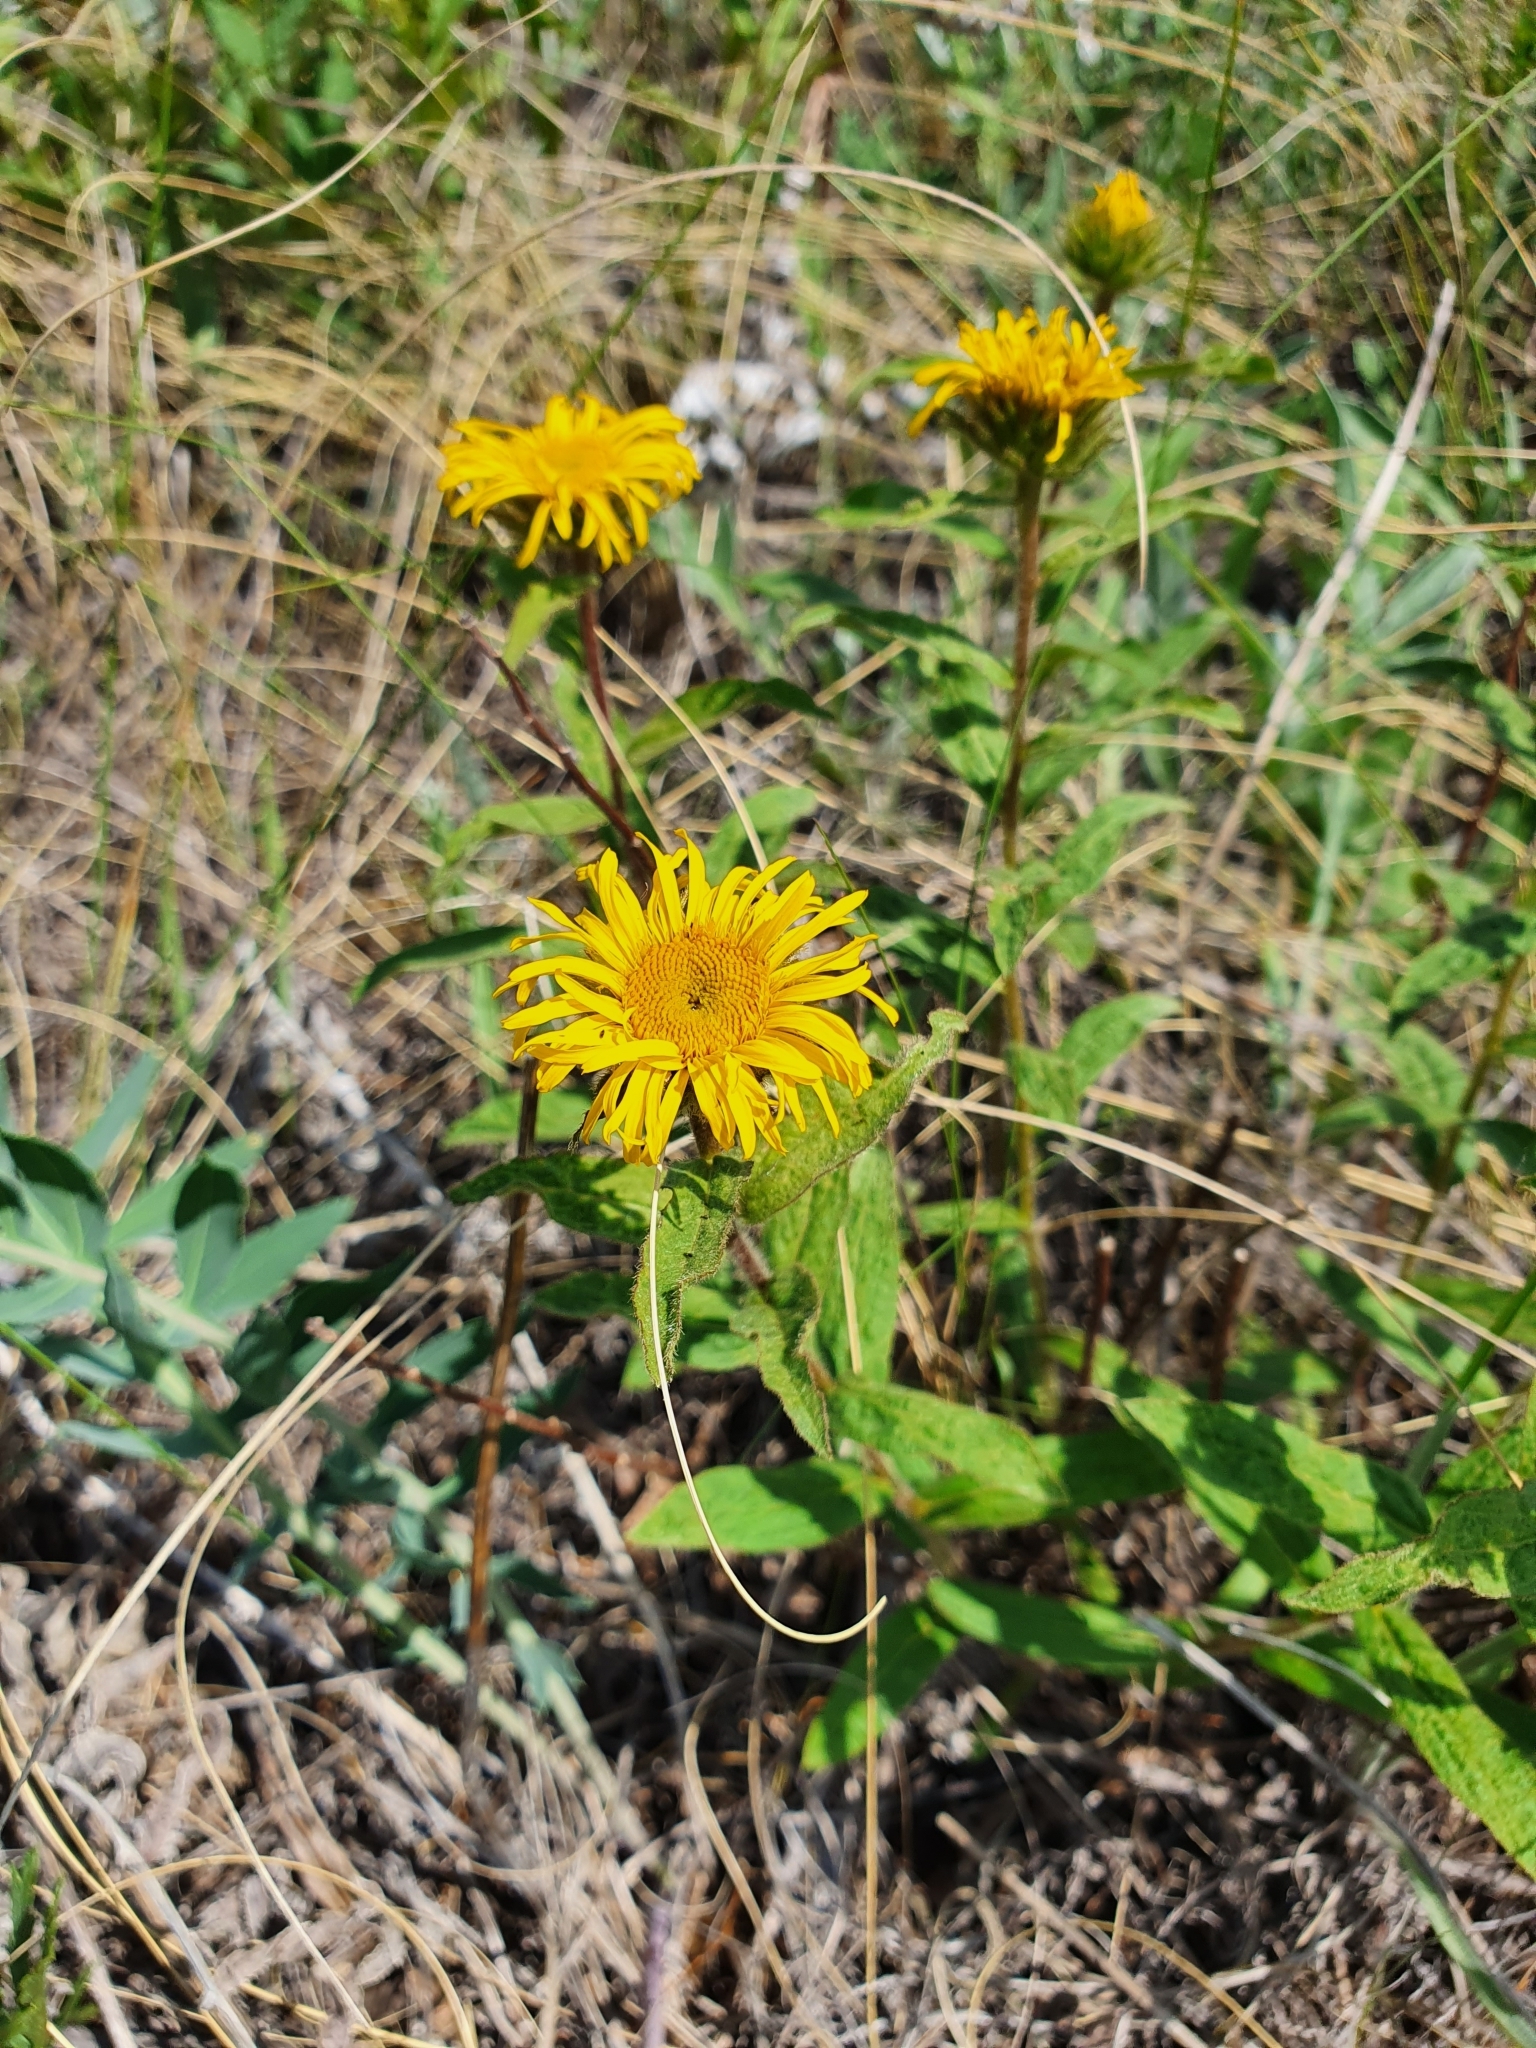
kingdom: Plantae
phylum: Tracheophyta
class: Magnoliopsida
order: Asterales
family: Asteraceae
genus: Pentanema
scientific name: Pentanema hirtum
